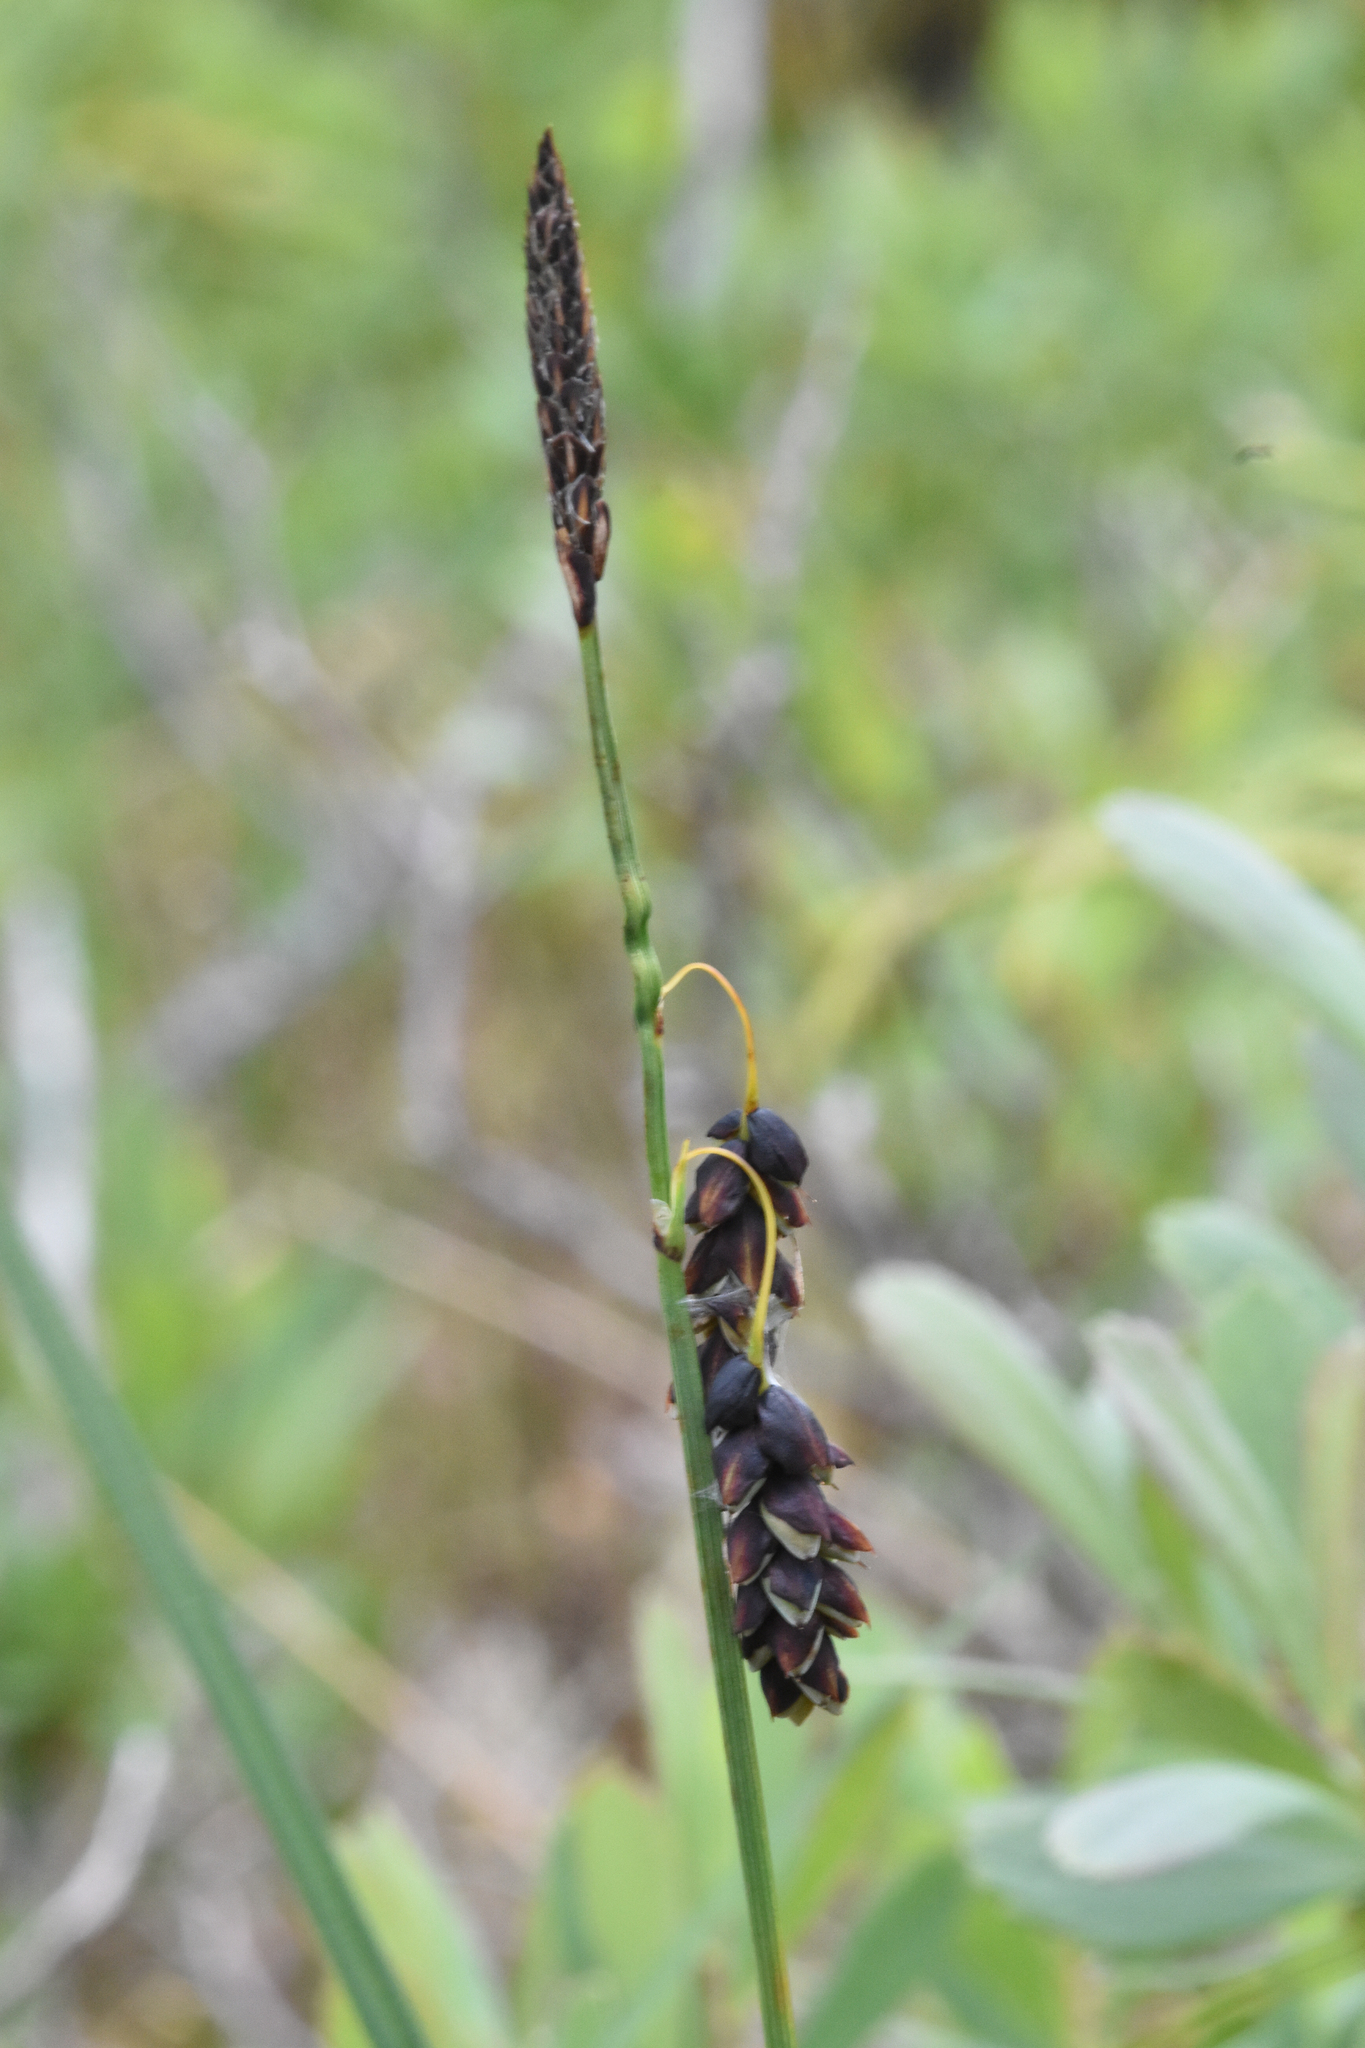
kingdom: Plantae
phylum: Tracheophyta
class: Liliopsida
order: Poales
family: Cyperaceae
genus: Carex
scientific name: Carex pluriflora
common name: Manyflower sedge
